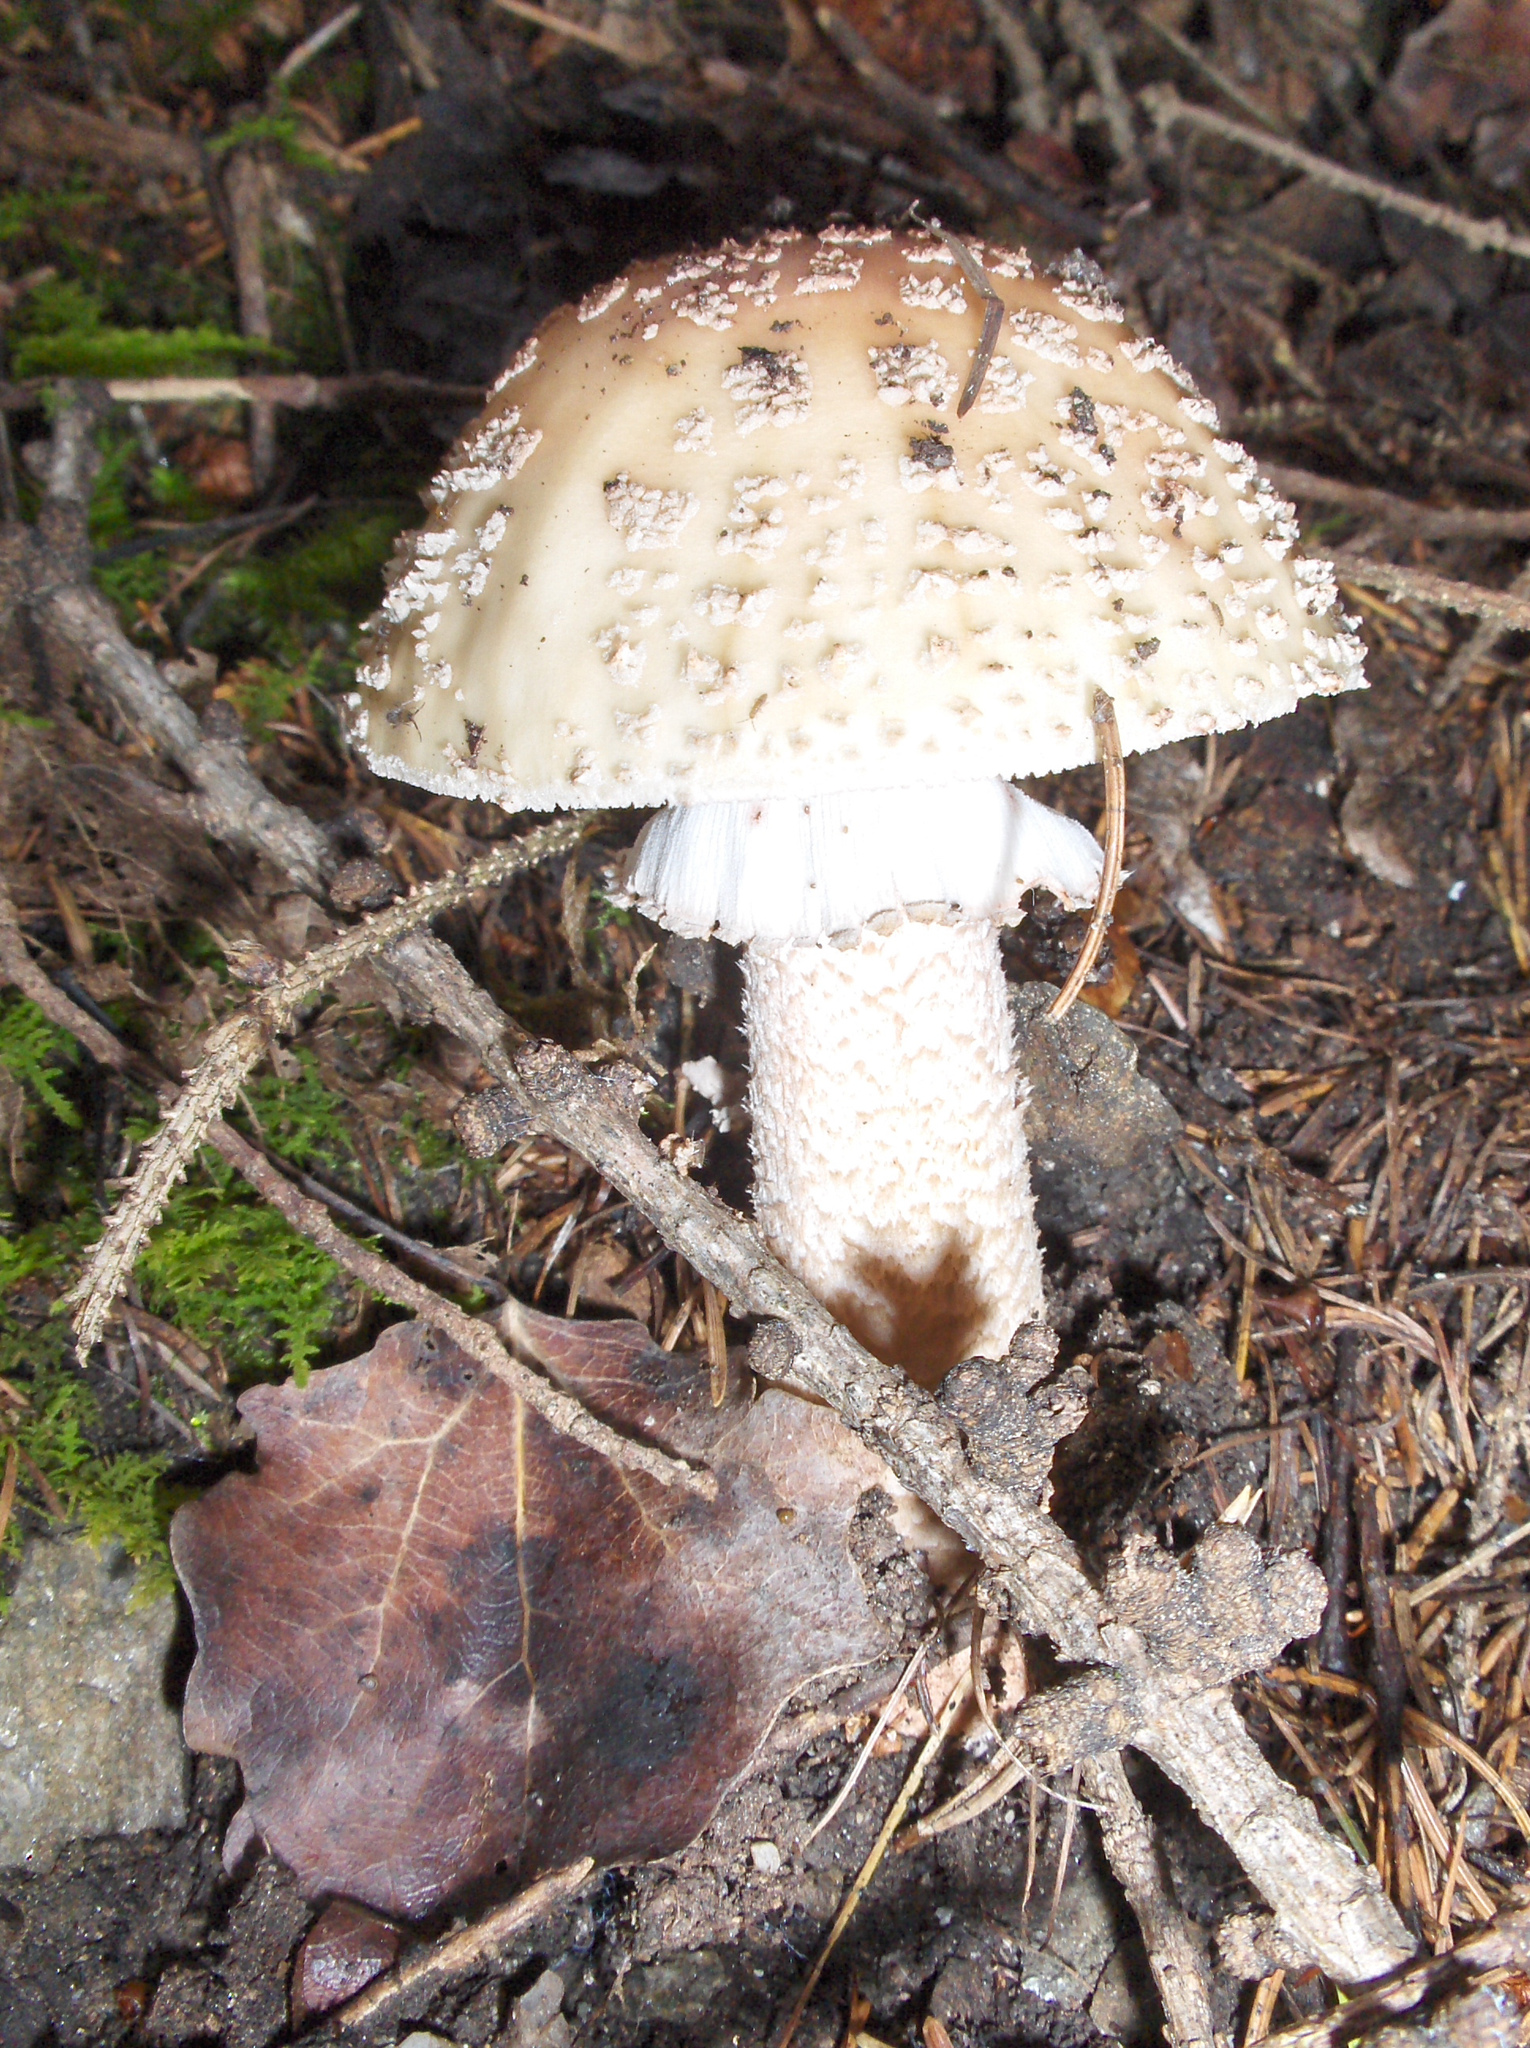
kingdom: Fungi
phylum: Basidiomycota
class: Agaricomycetes
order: Agaricales
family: Amanitaceae
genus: Amanita
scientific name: Amanita rubescens
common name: Blusher
